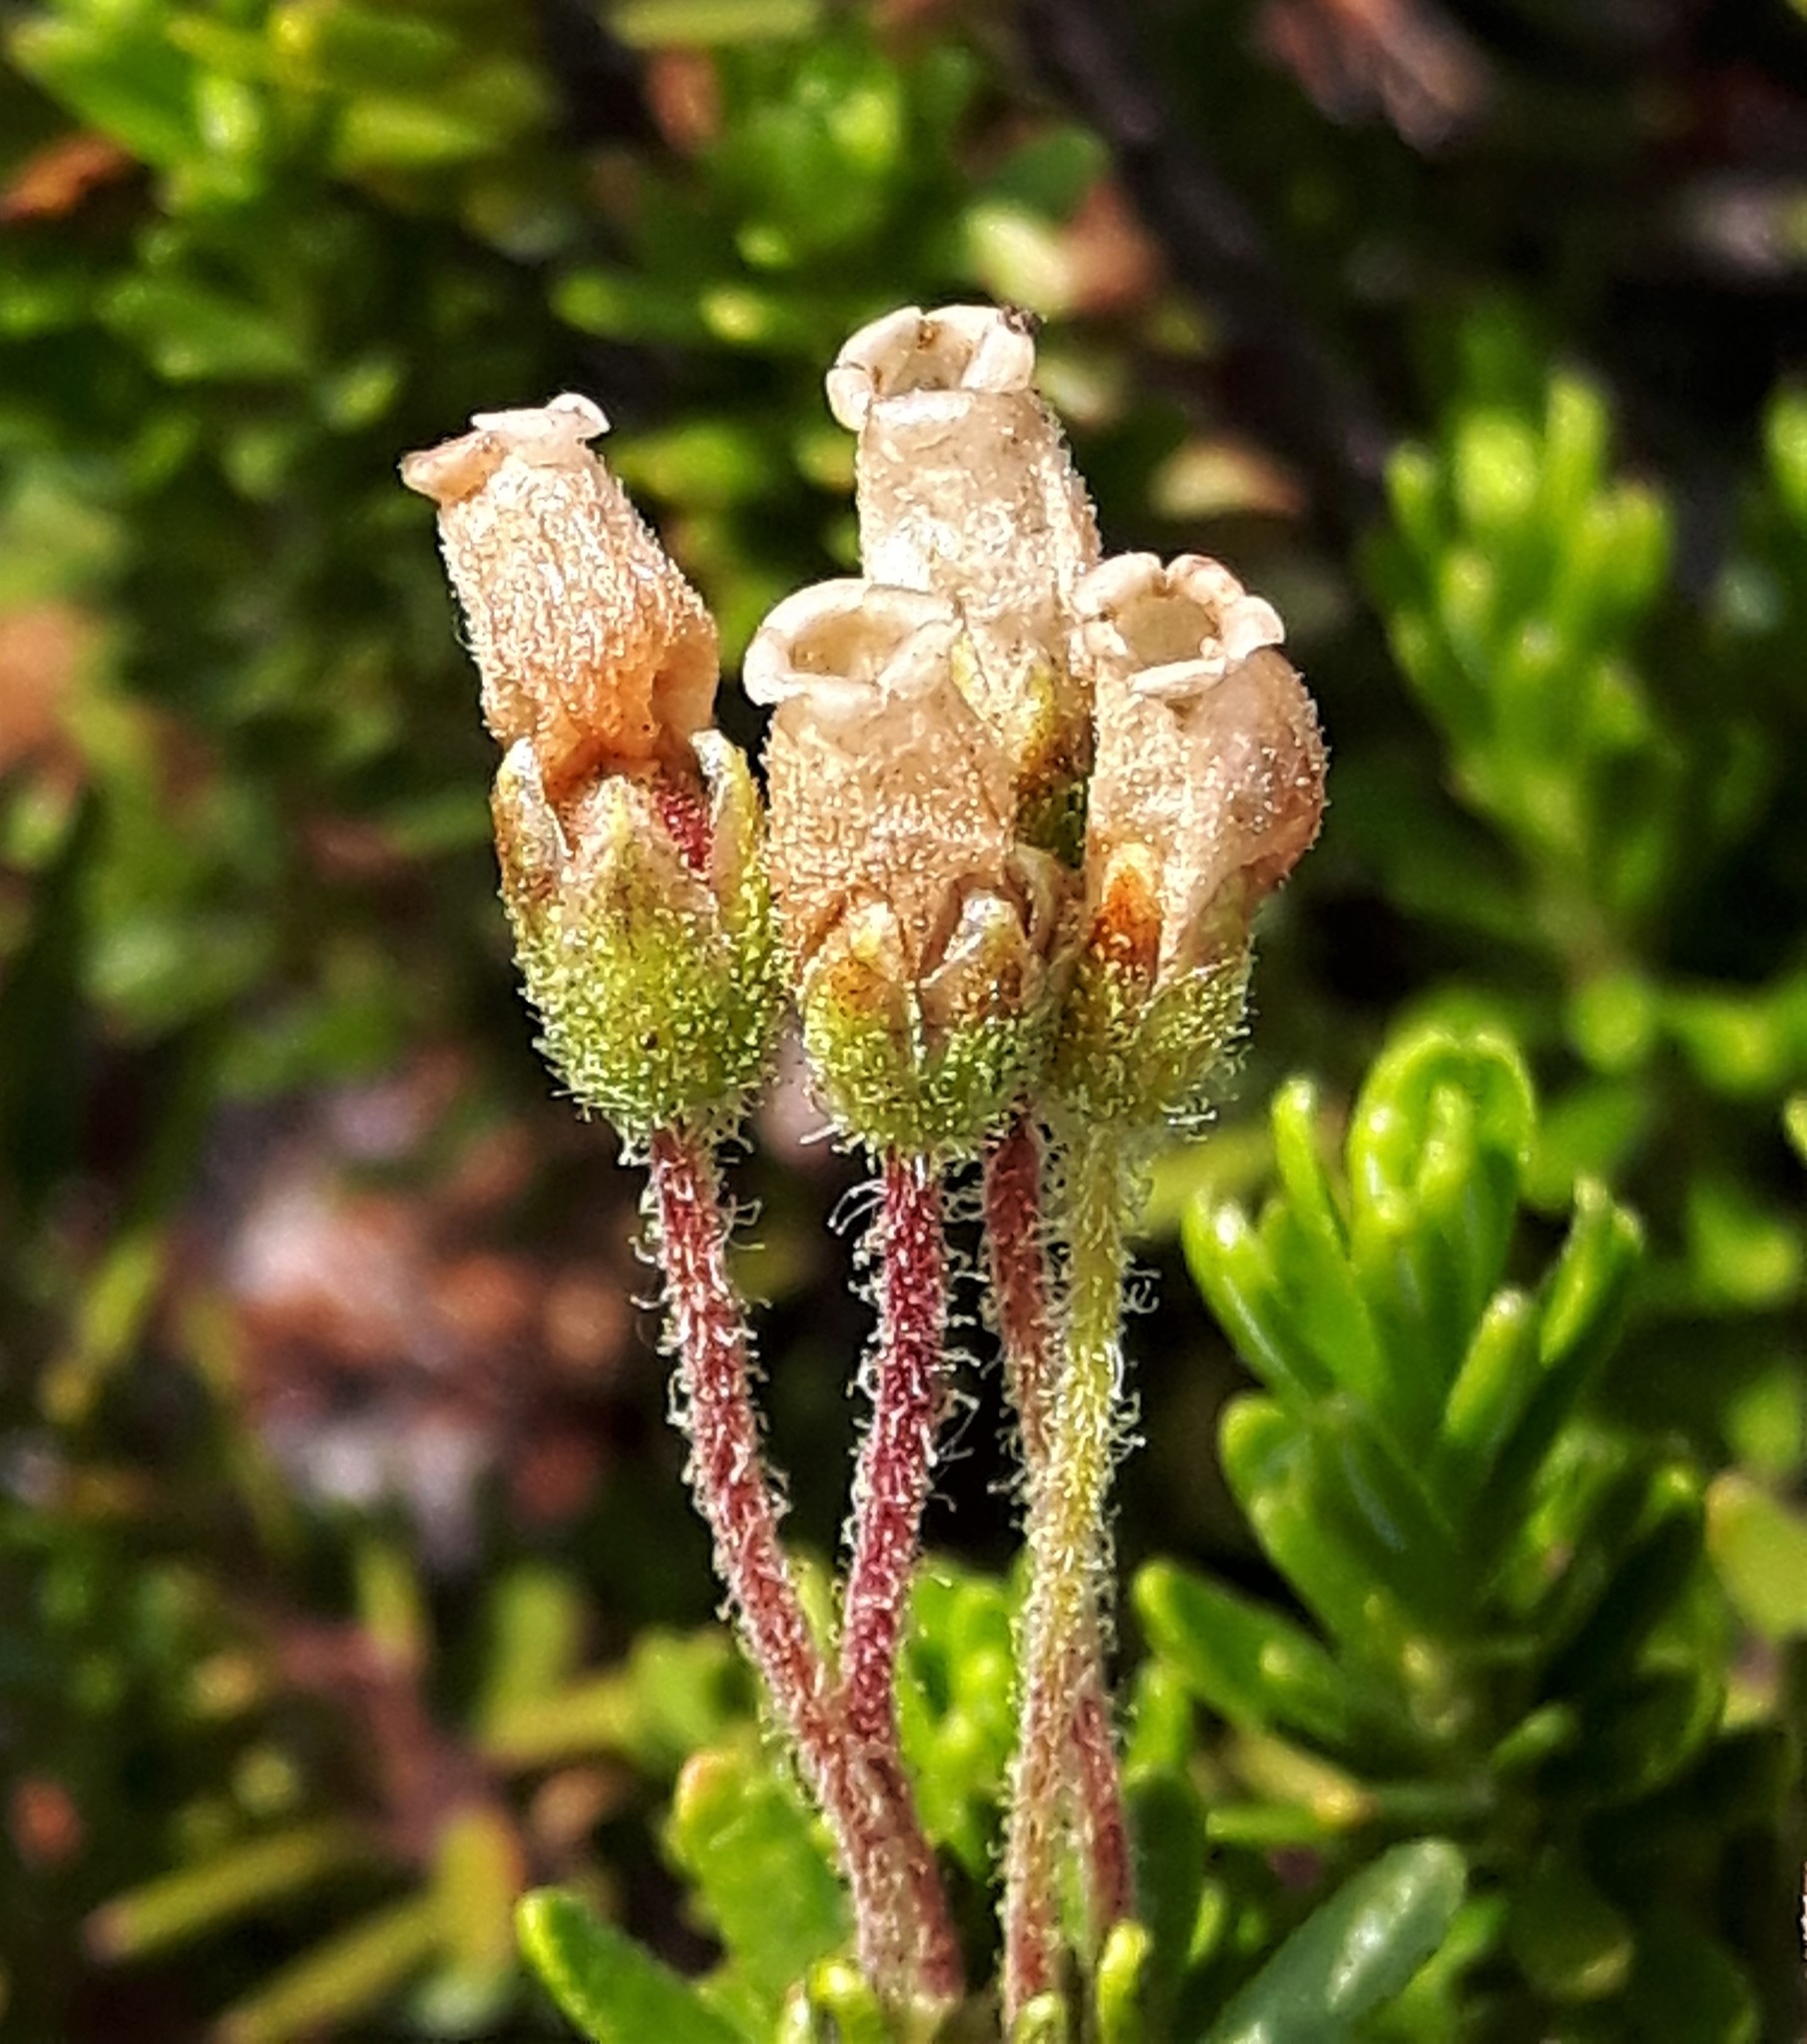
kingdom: Plantae
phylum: Tracheophyta
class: Magnoliopsida
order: Ericales
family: Ericaceae
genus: Phyllodoce
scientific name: Phyllodoce glanduliflora
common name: Cream mountain heather
